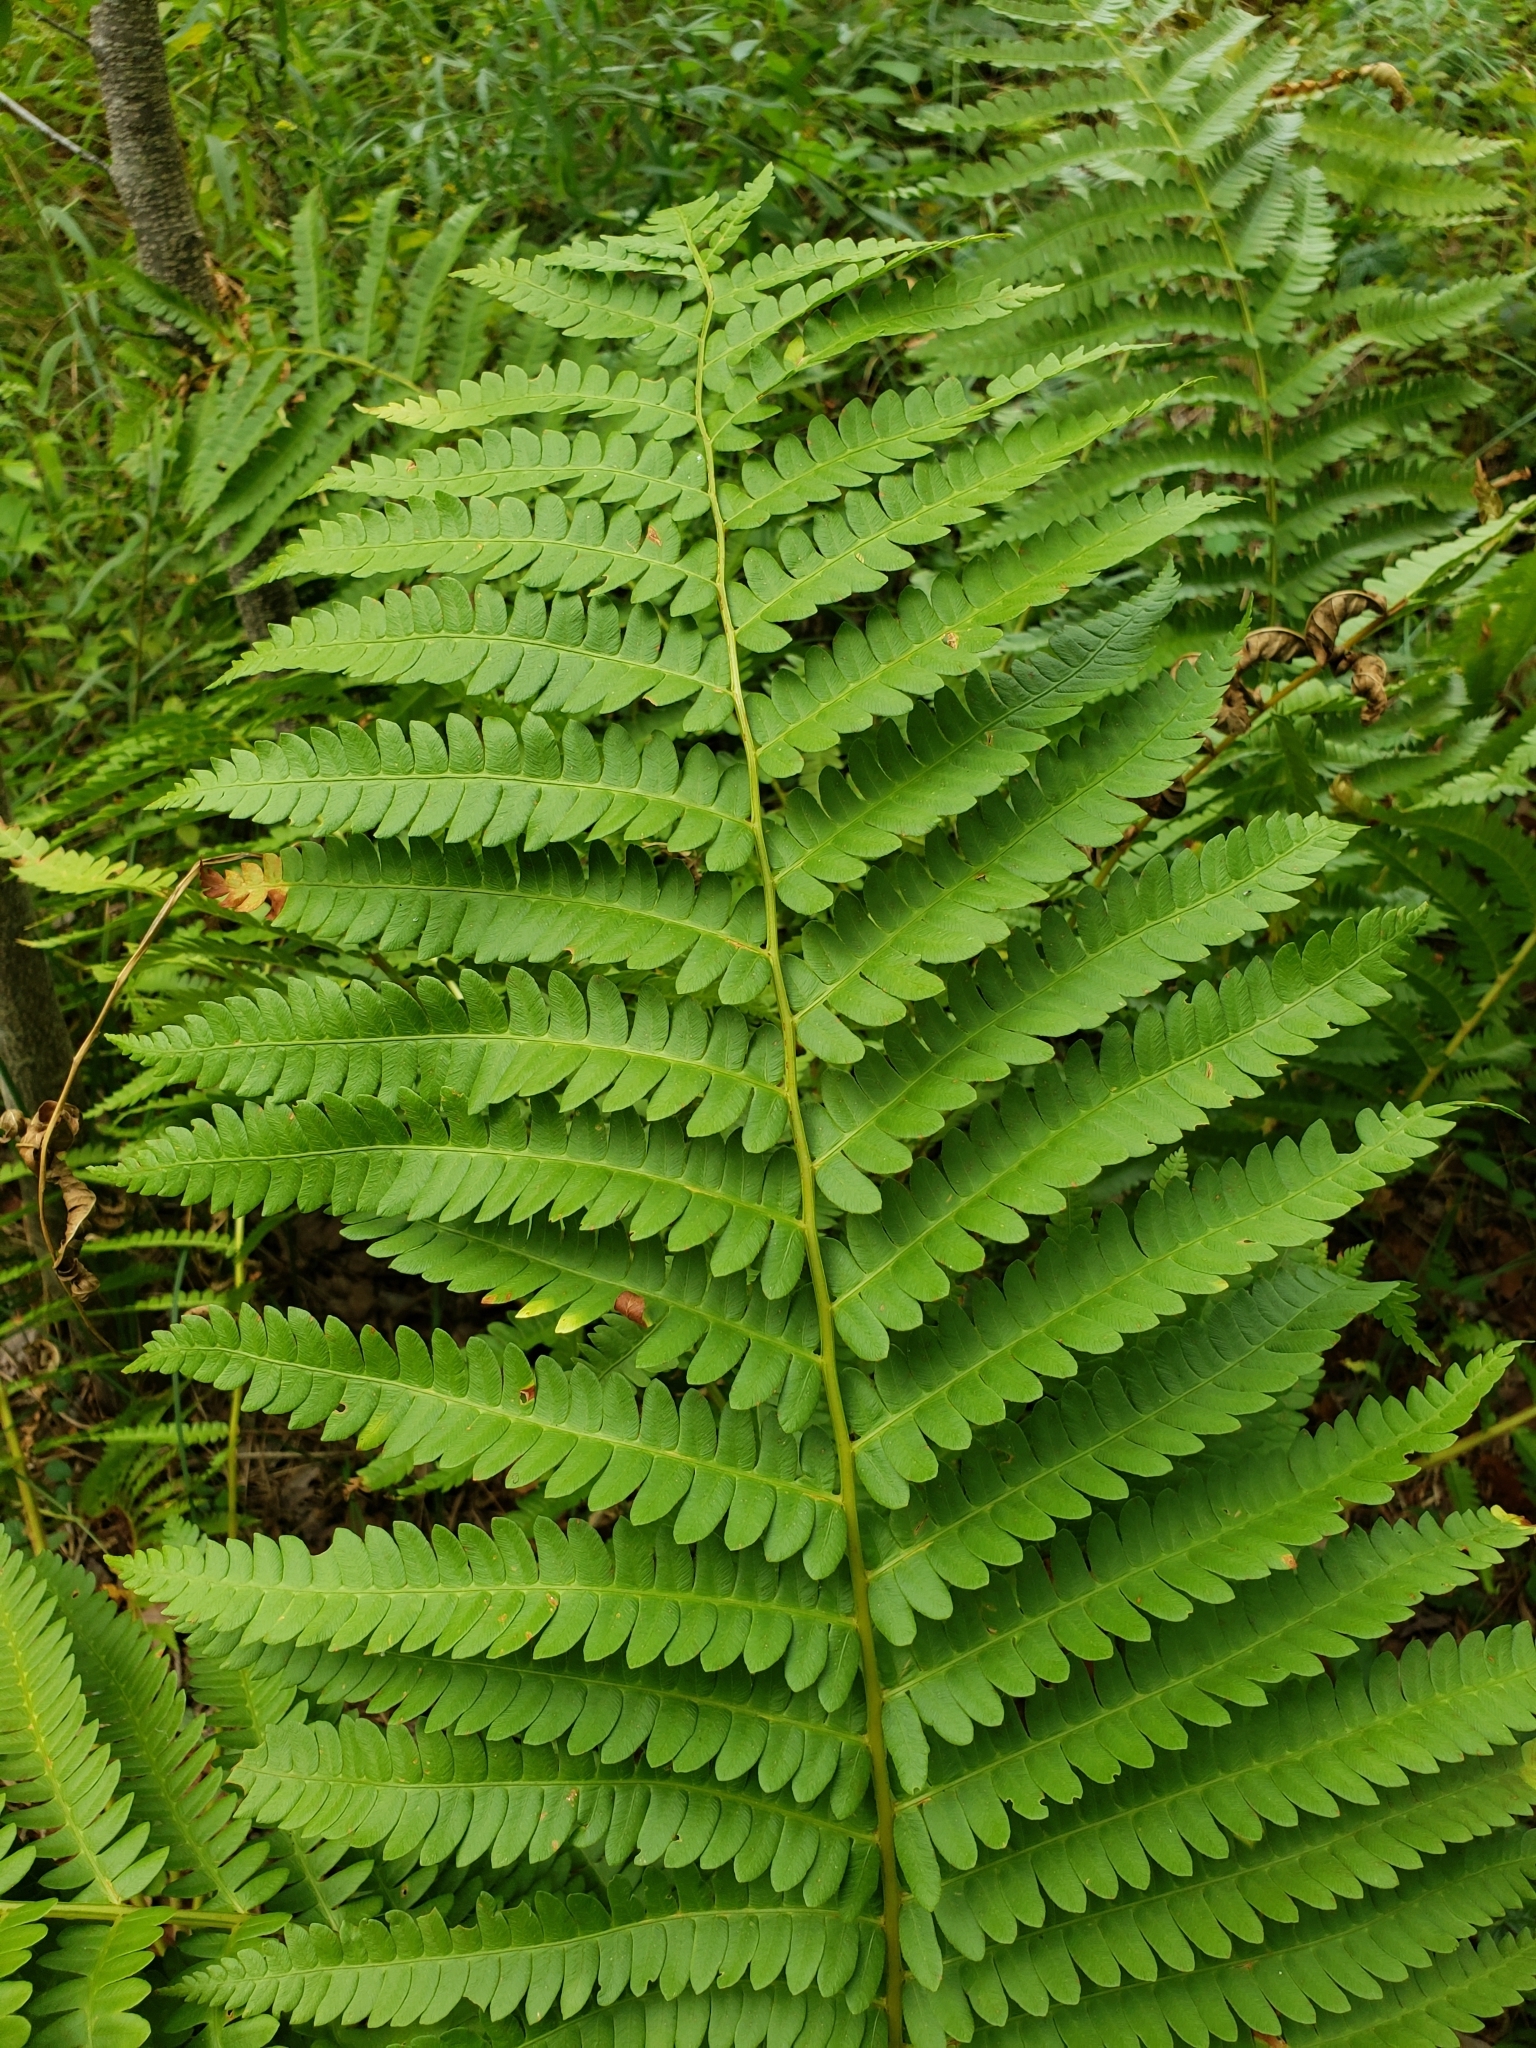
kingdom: Plantae
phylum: Tracheophyta
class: Polypodiopsida
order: Osmundales
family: Osmundaceae
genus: Osmundastrum
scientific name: Osmundastrum cinnamomeum
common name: Cinnamon fern
